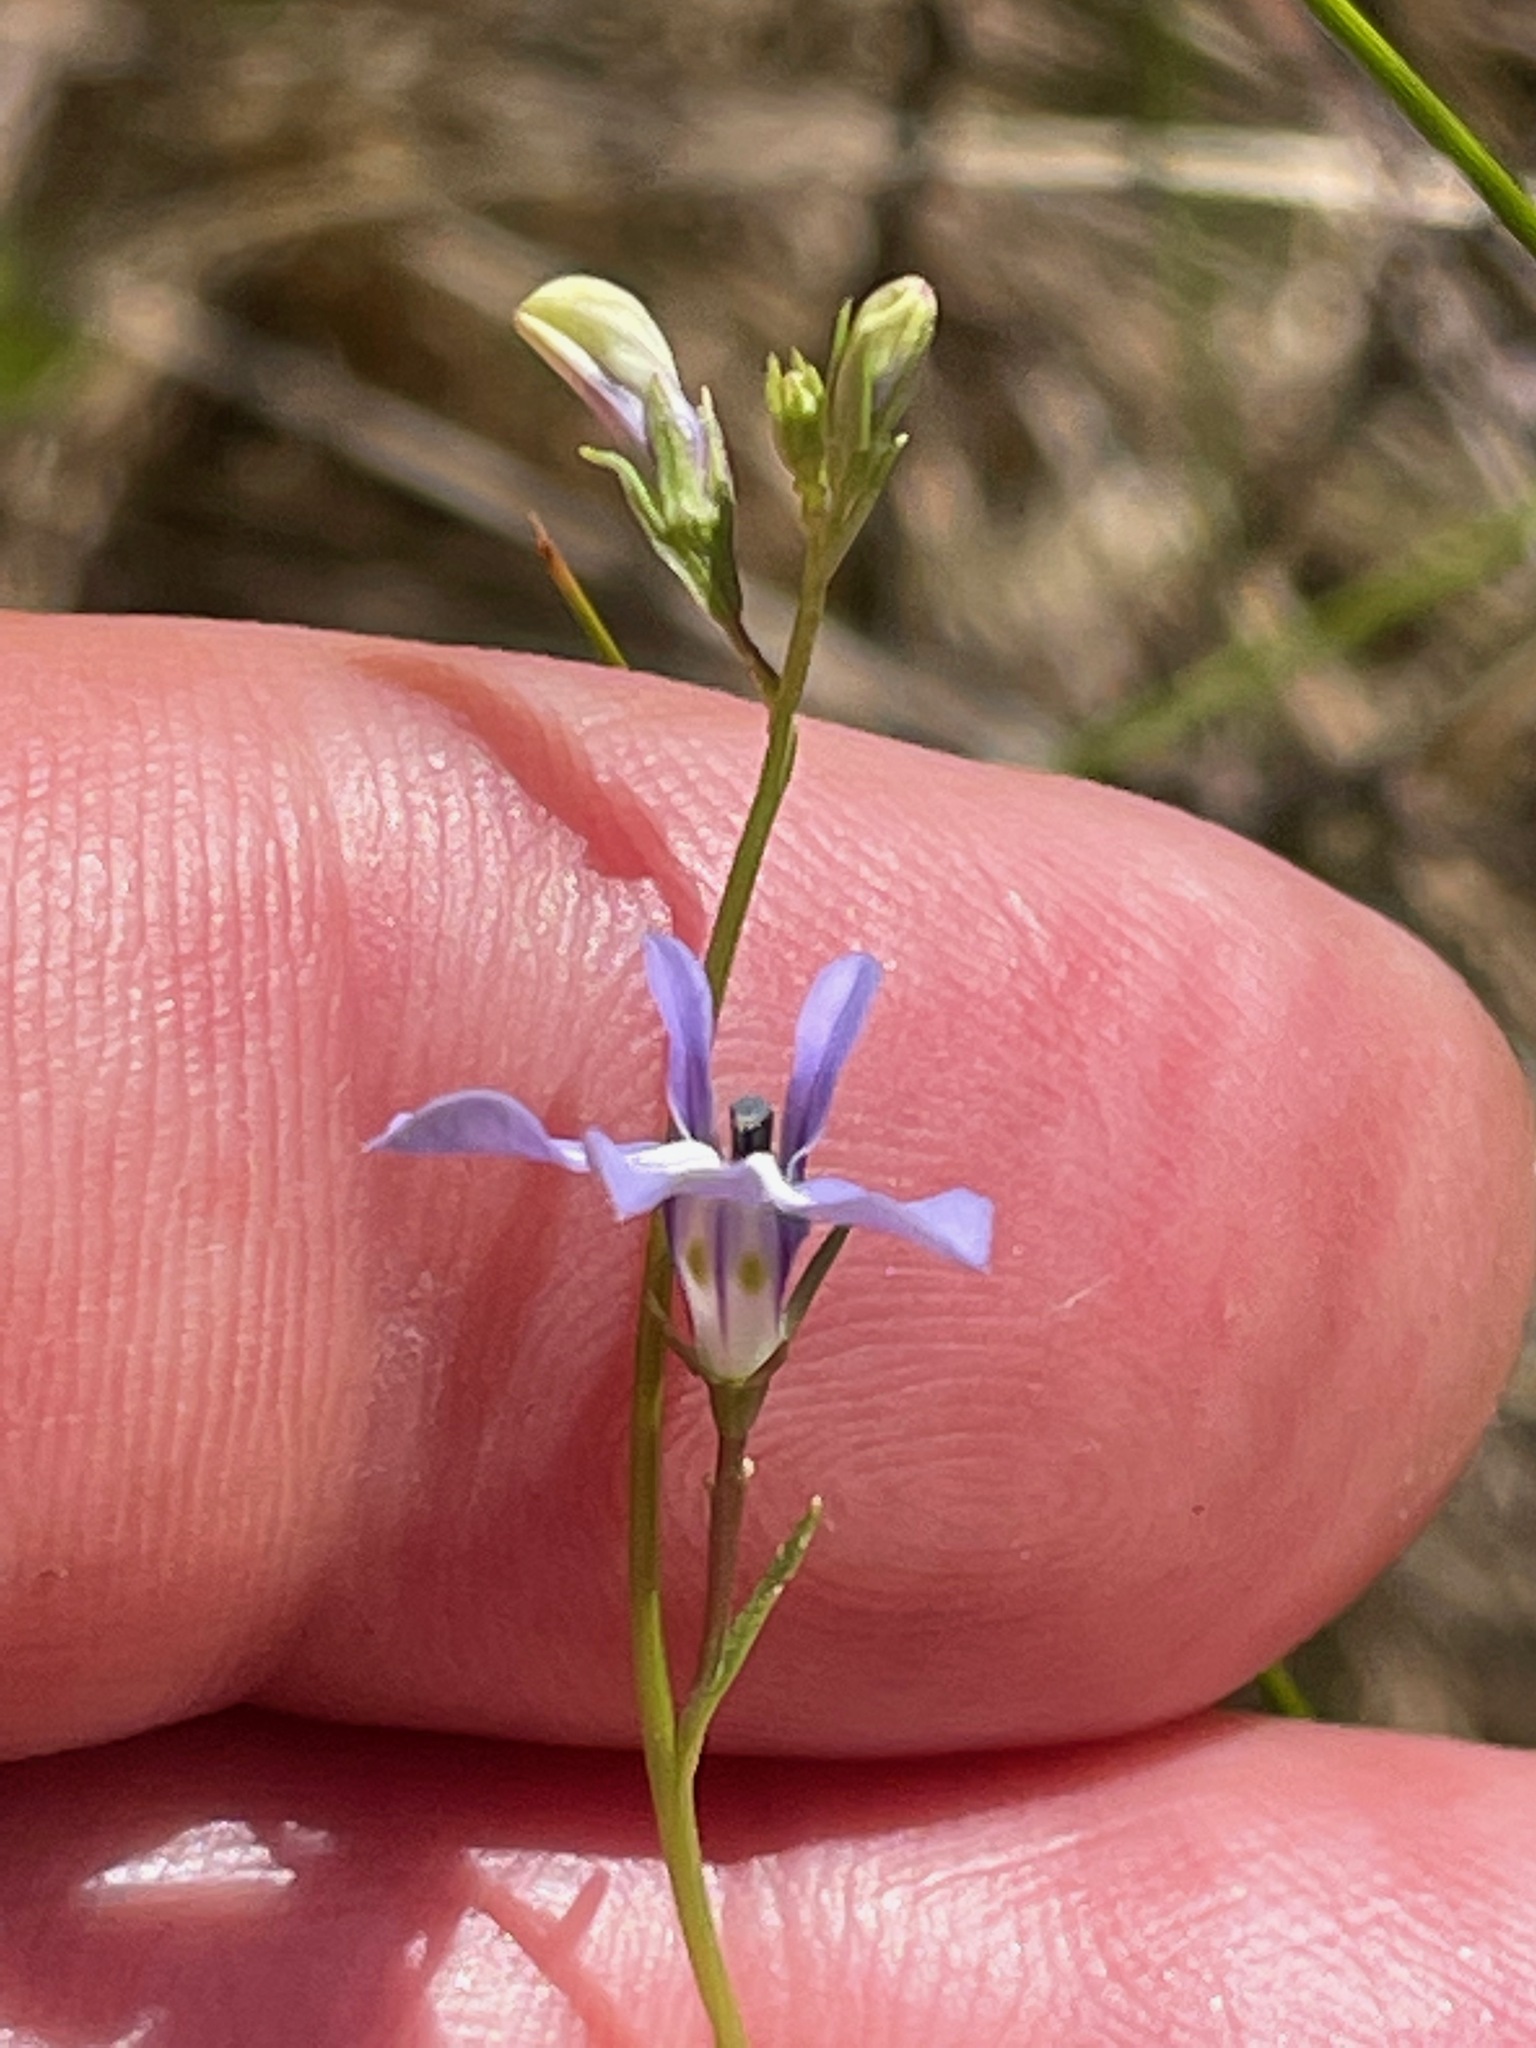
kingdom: Plantae
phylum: Tracheophyta
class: Magnoliopsida
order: Asterales
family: Campanulaceae
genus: Lobelia
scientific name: Lobelia kalmii
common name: Kalm's lobelia
